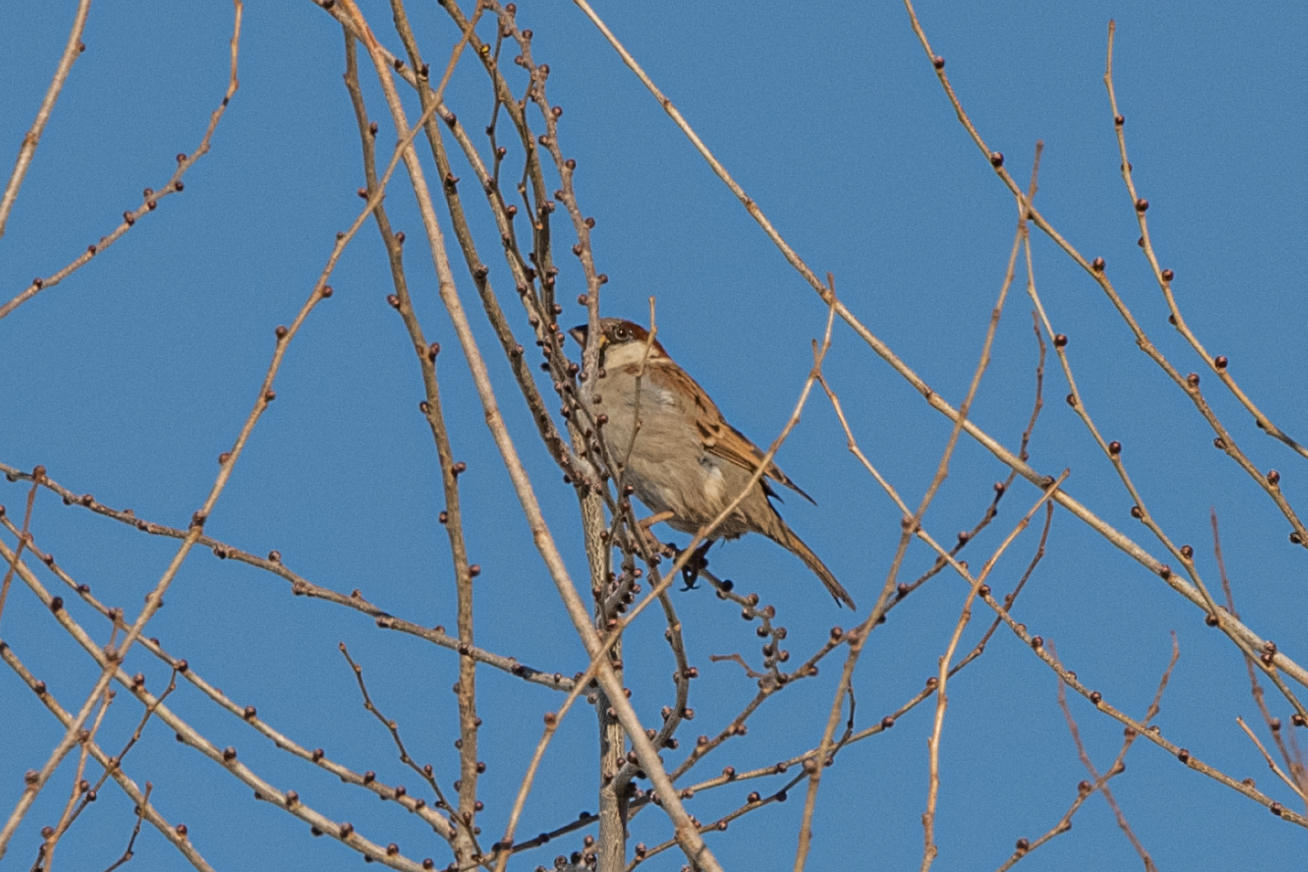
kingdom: Animalia
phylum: Chordata
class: Aves
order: Passeriformes
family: Passeridae
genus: Passer
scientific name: Passer domesticus
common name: House sparrow
